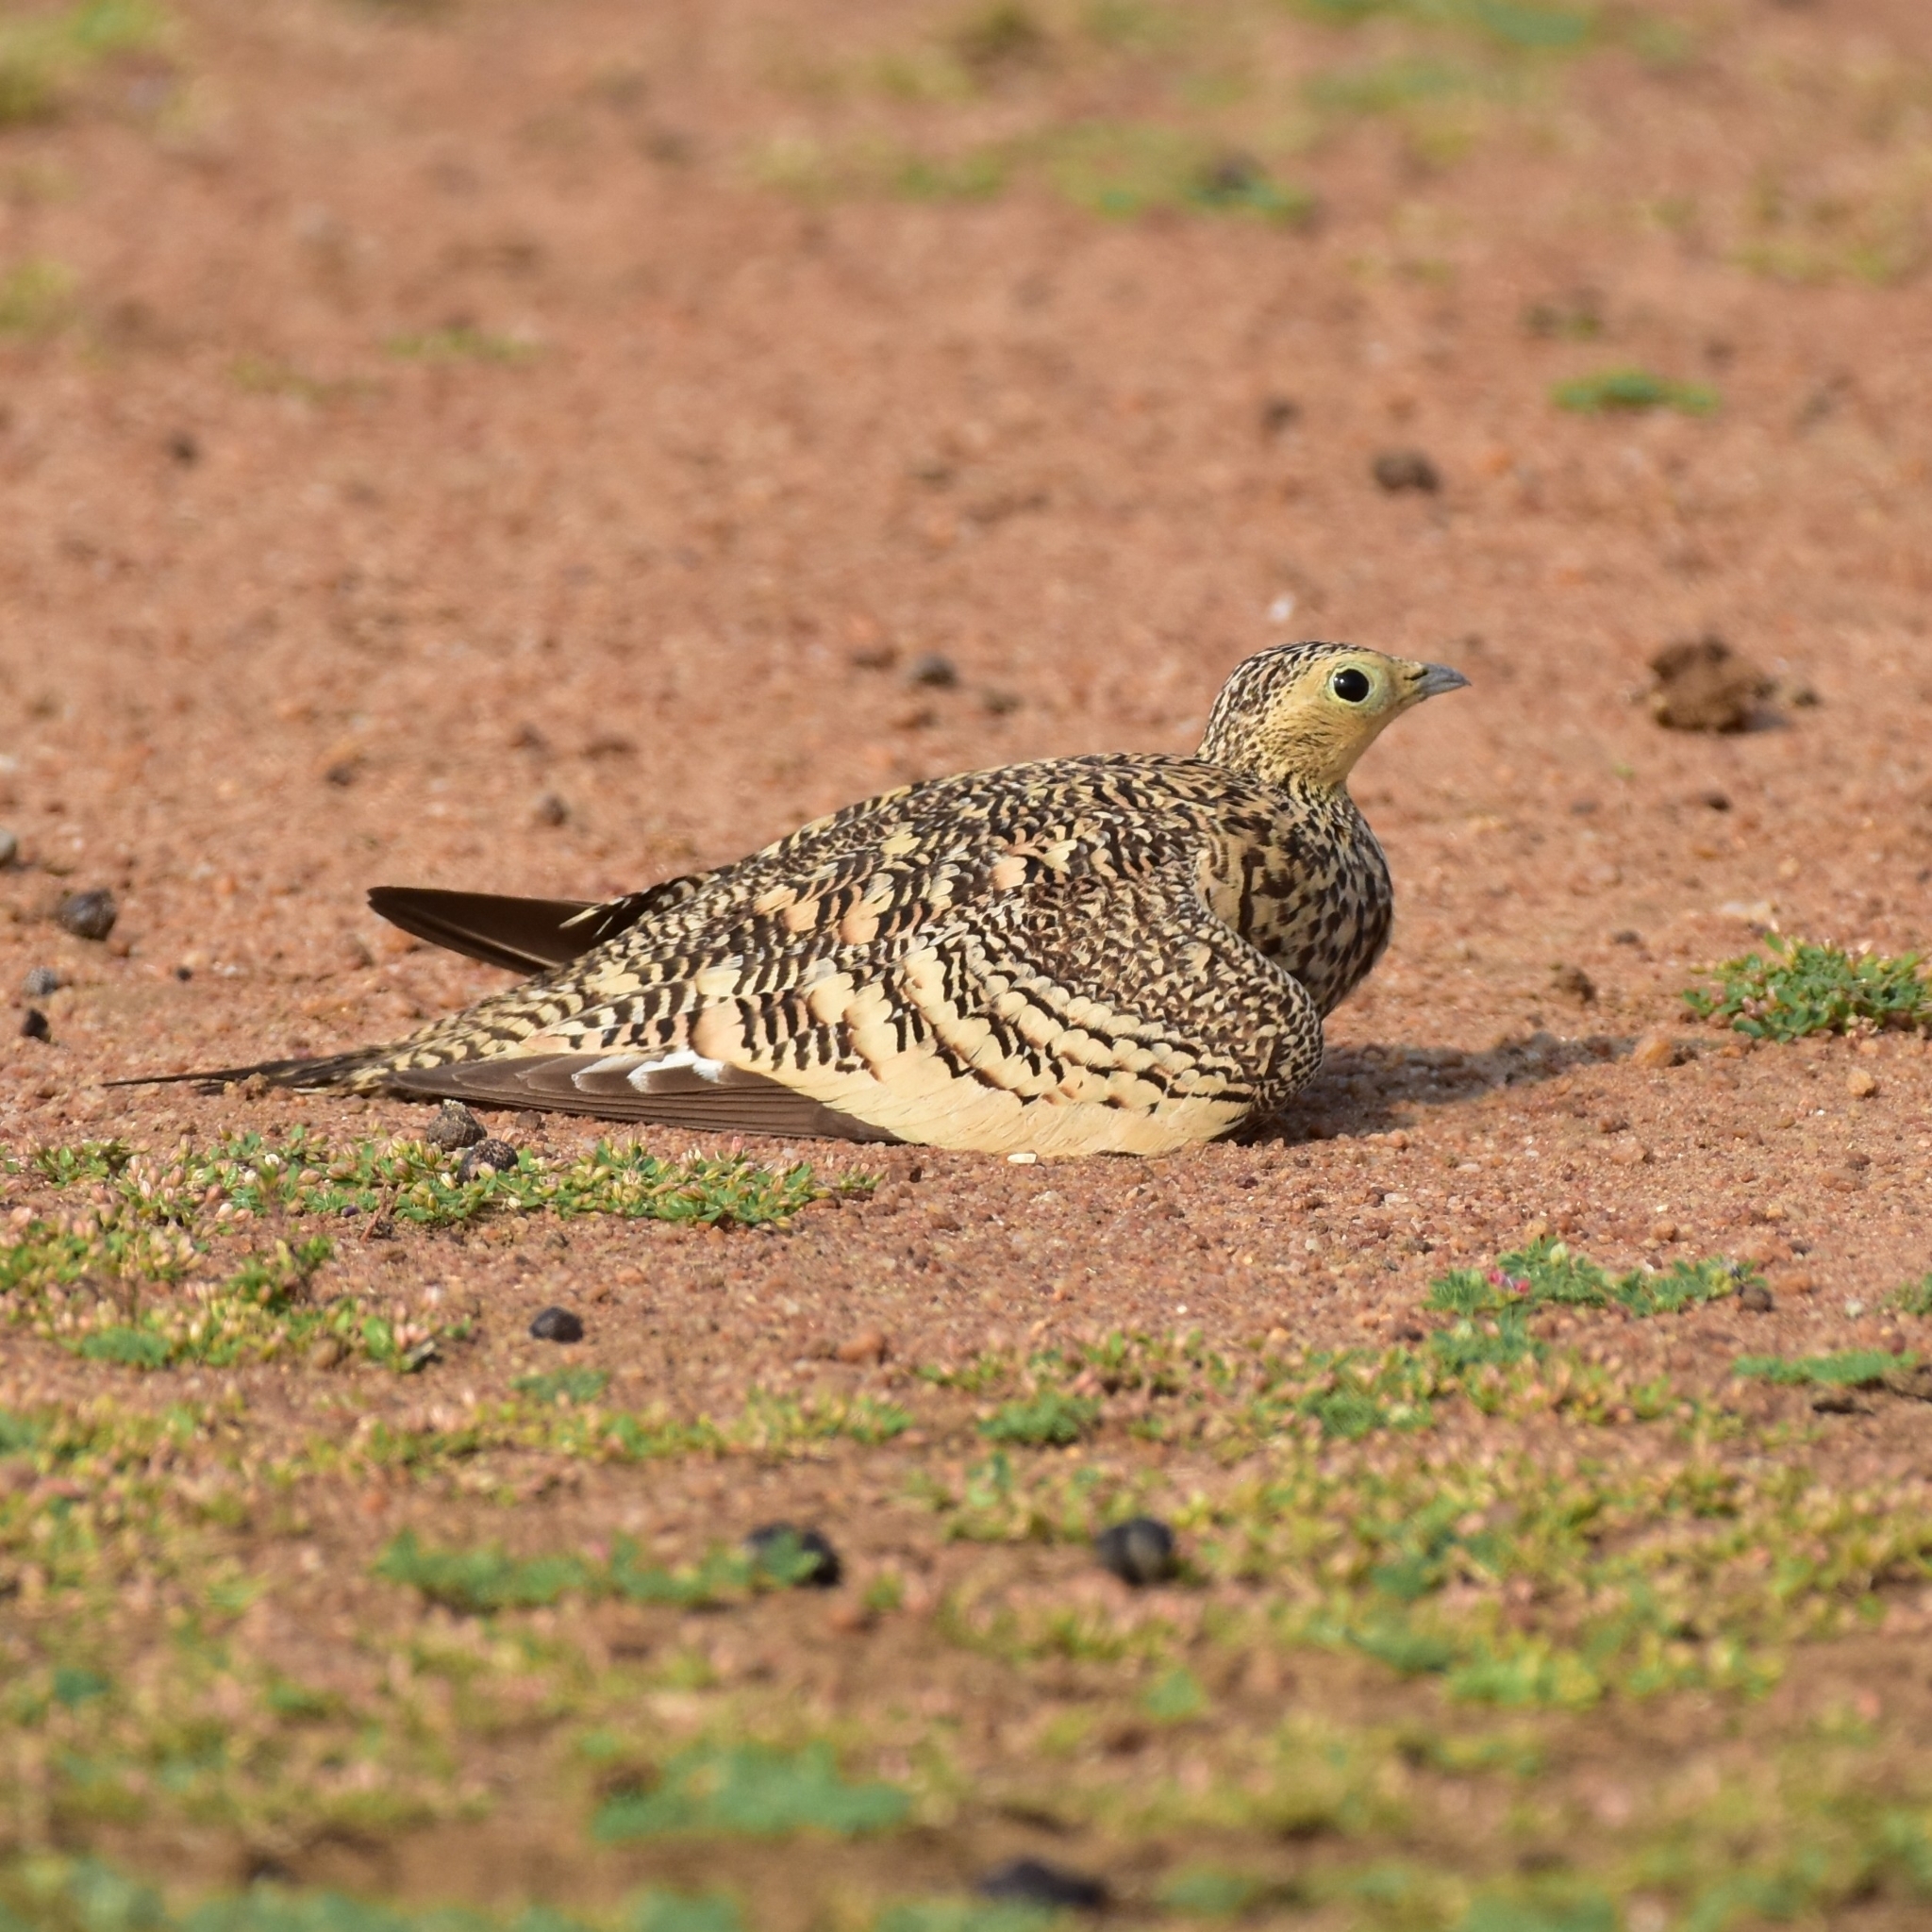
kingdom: Animalia
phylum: Chordata
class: Aves
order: Pteroclidiformes
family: Pteroclididae
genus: Pterocles
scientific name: Pterocles exustus
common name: Chestnut-bellied sandgrouse
